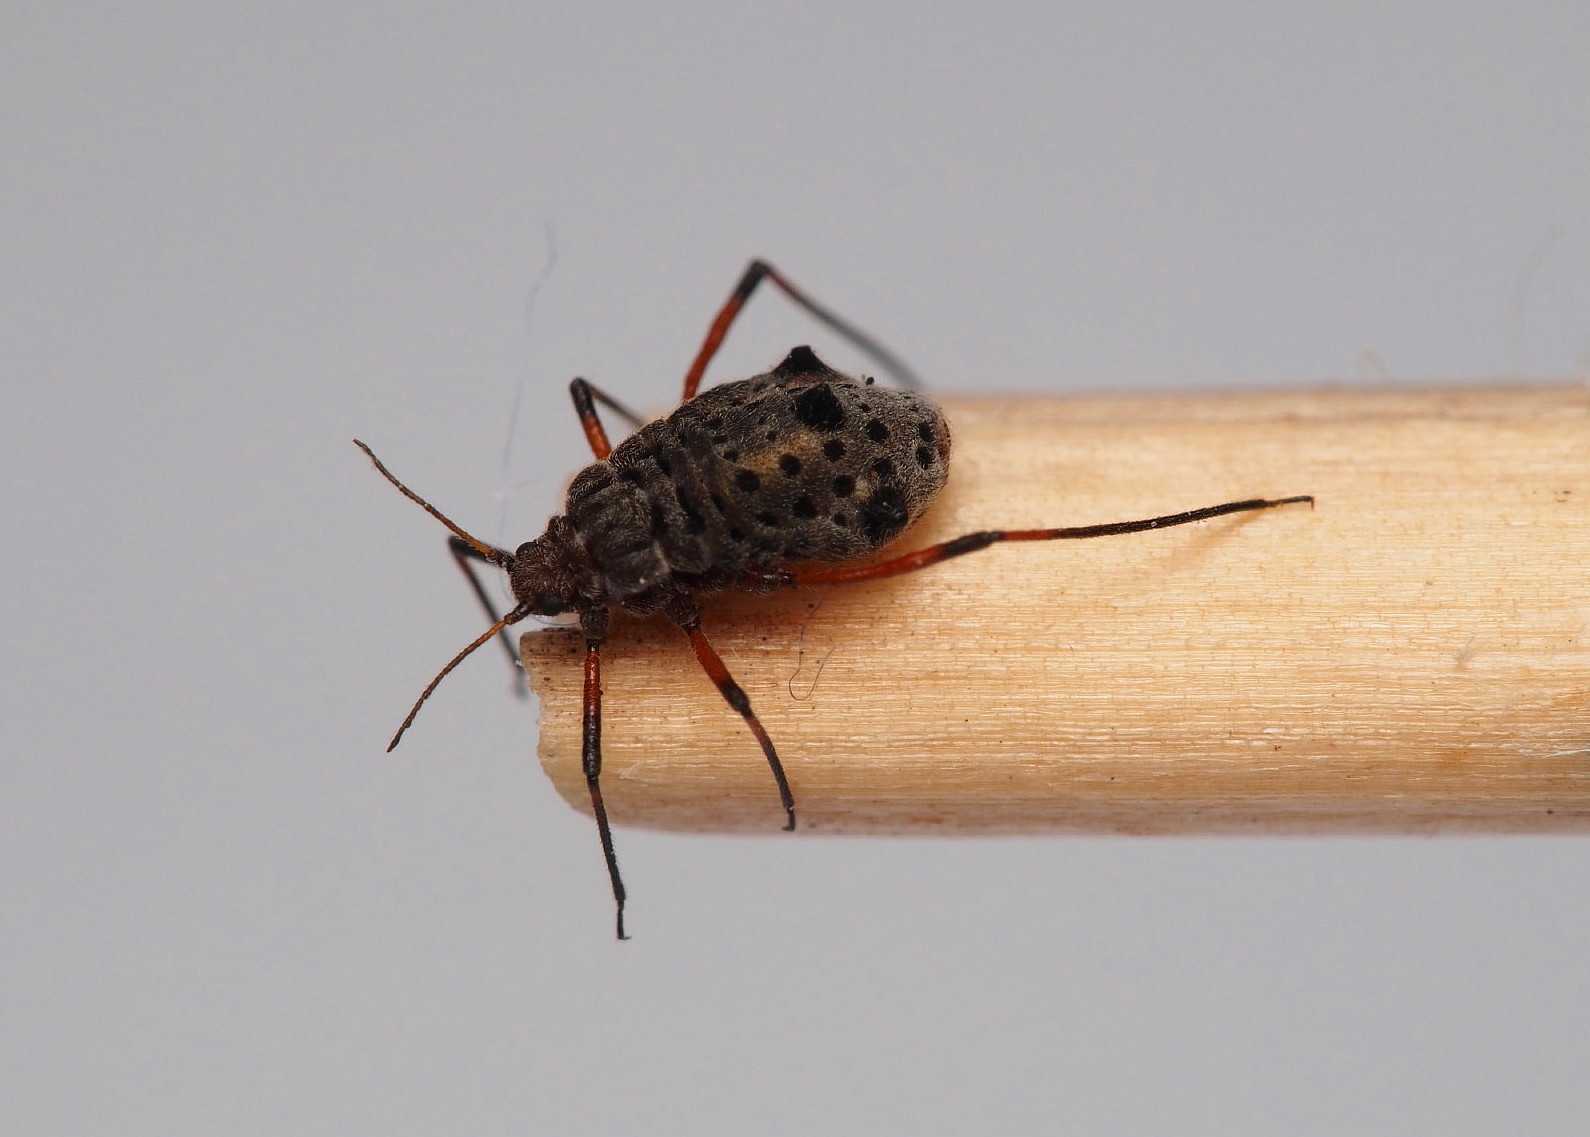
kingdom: Animalia
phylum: Arthropoda
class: Insecta
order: Hemiptera
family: Aphididae
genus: Tuberolachnus
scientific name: Tuberolachnus salignus
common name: Giant willow aphid
